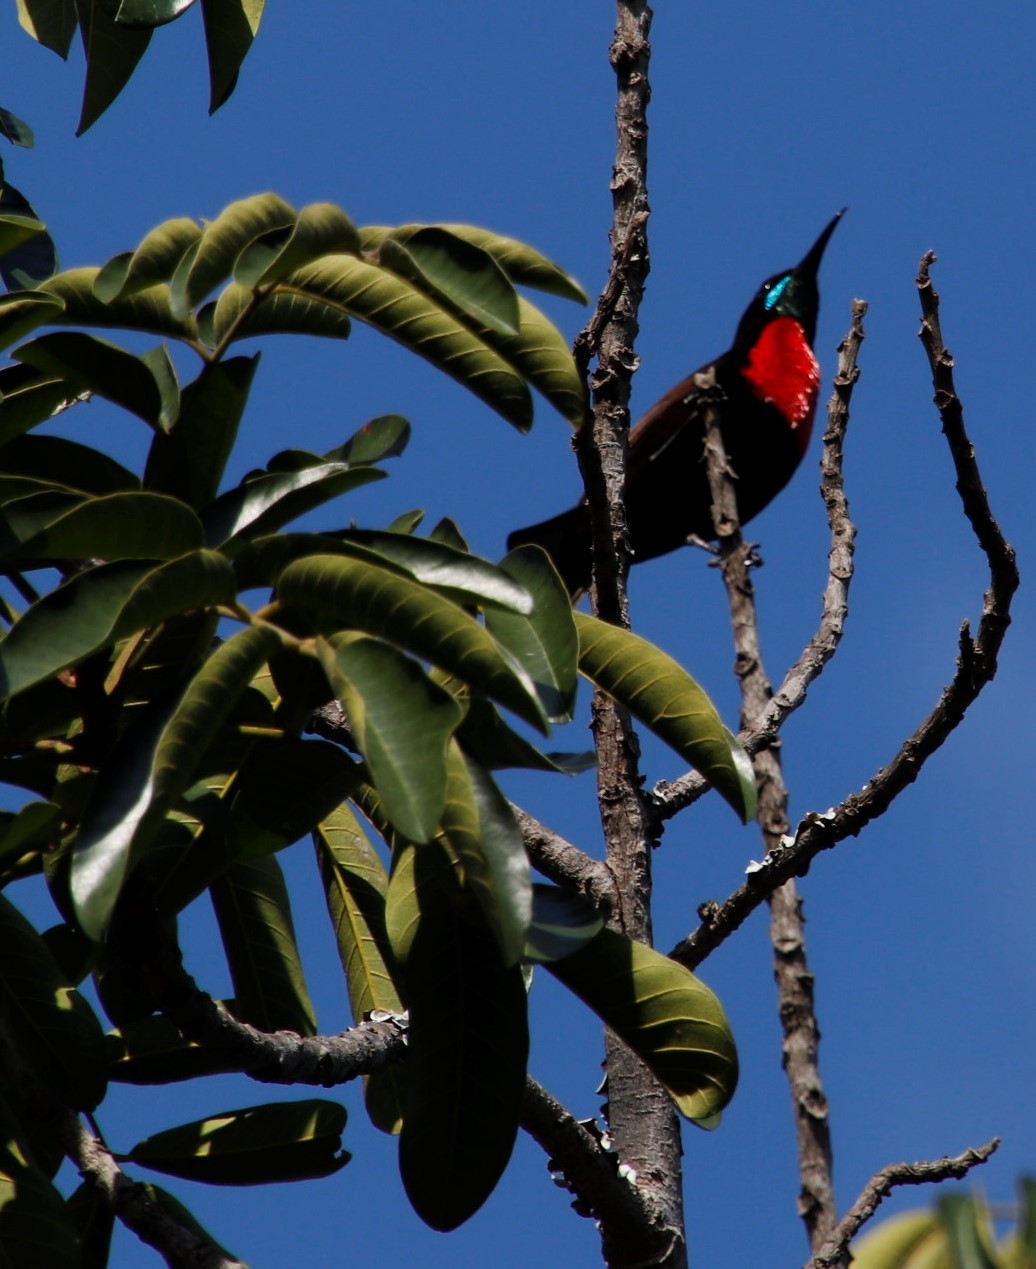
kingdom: Animalia
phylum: Chordata
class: Aves
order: Passeriformes
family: Nectariniidae
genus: Chalcomitra
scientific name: Chalcomitra senegalensis
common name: Scarlet-chested sunbird
